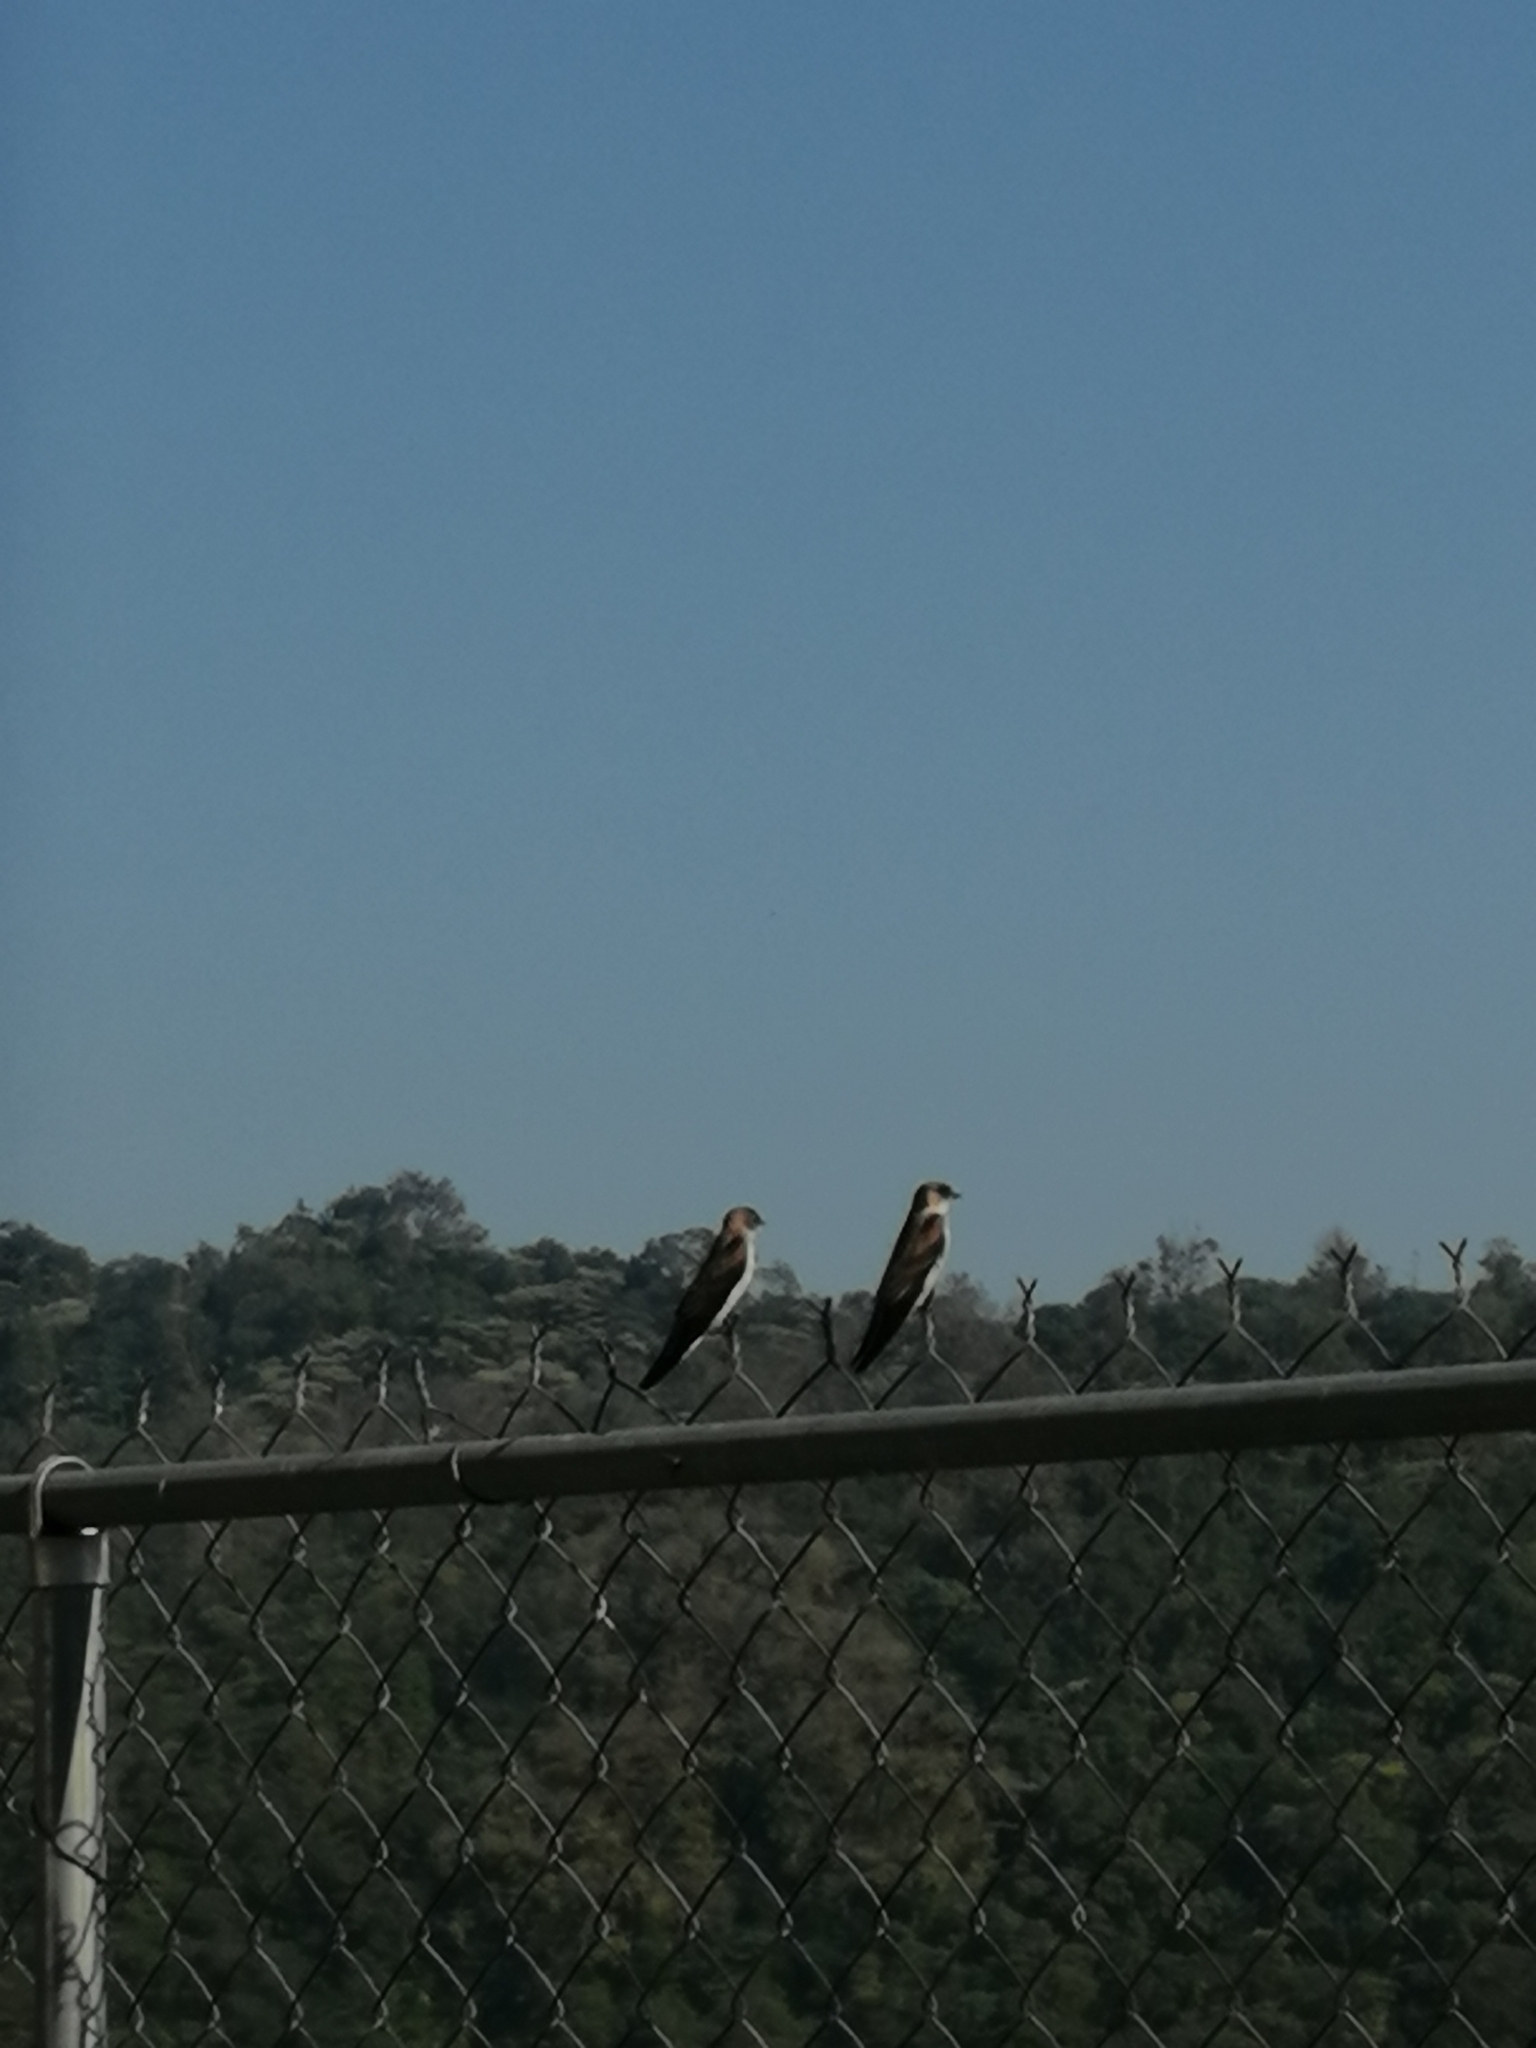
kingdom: Animalia
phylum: Chordata
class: Aves
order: Passeriformes
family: Hirundinidae
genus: Stelgidopteryx
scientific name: Stelgidopteryx serripennis
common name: Northern rough-winged swallow
